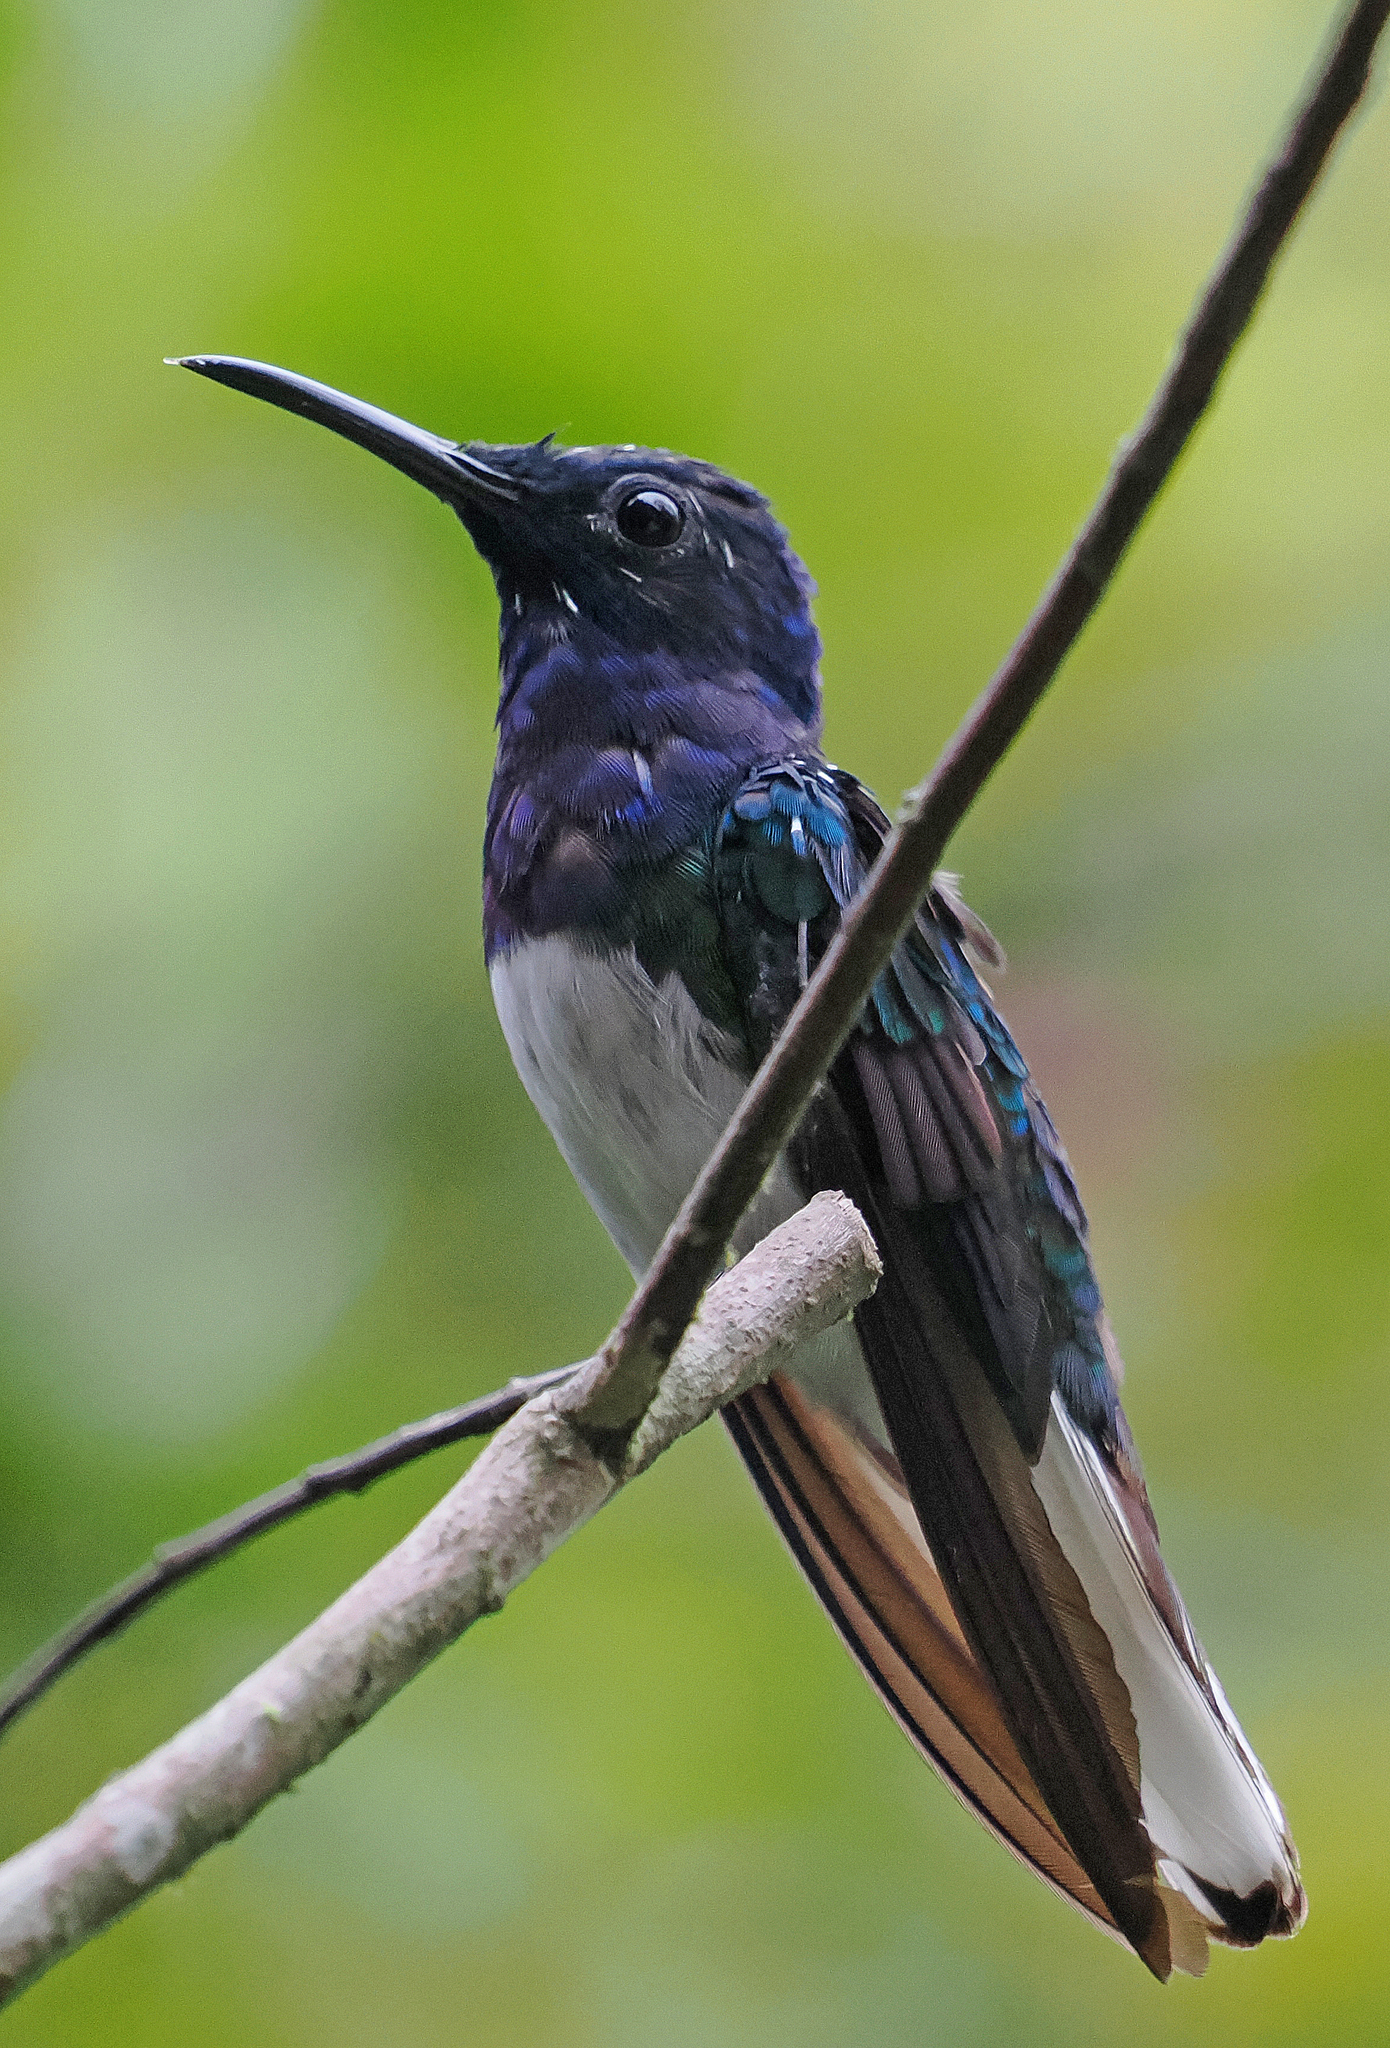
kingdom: Animalia
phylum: Chordata
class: Aves
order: Apodiformes
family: Trochilidae
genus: Florisuga
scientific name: Florisuga mellivora
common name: White-necked jacobin
